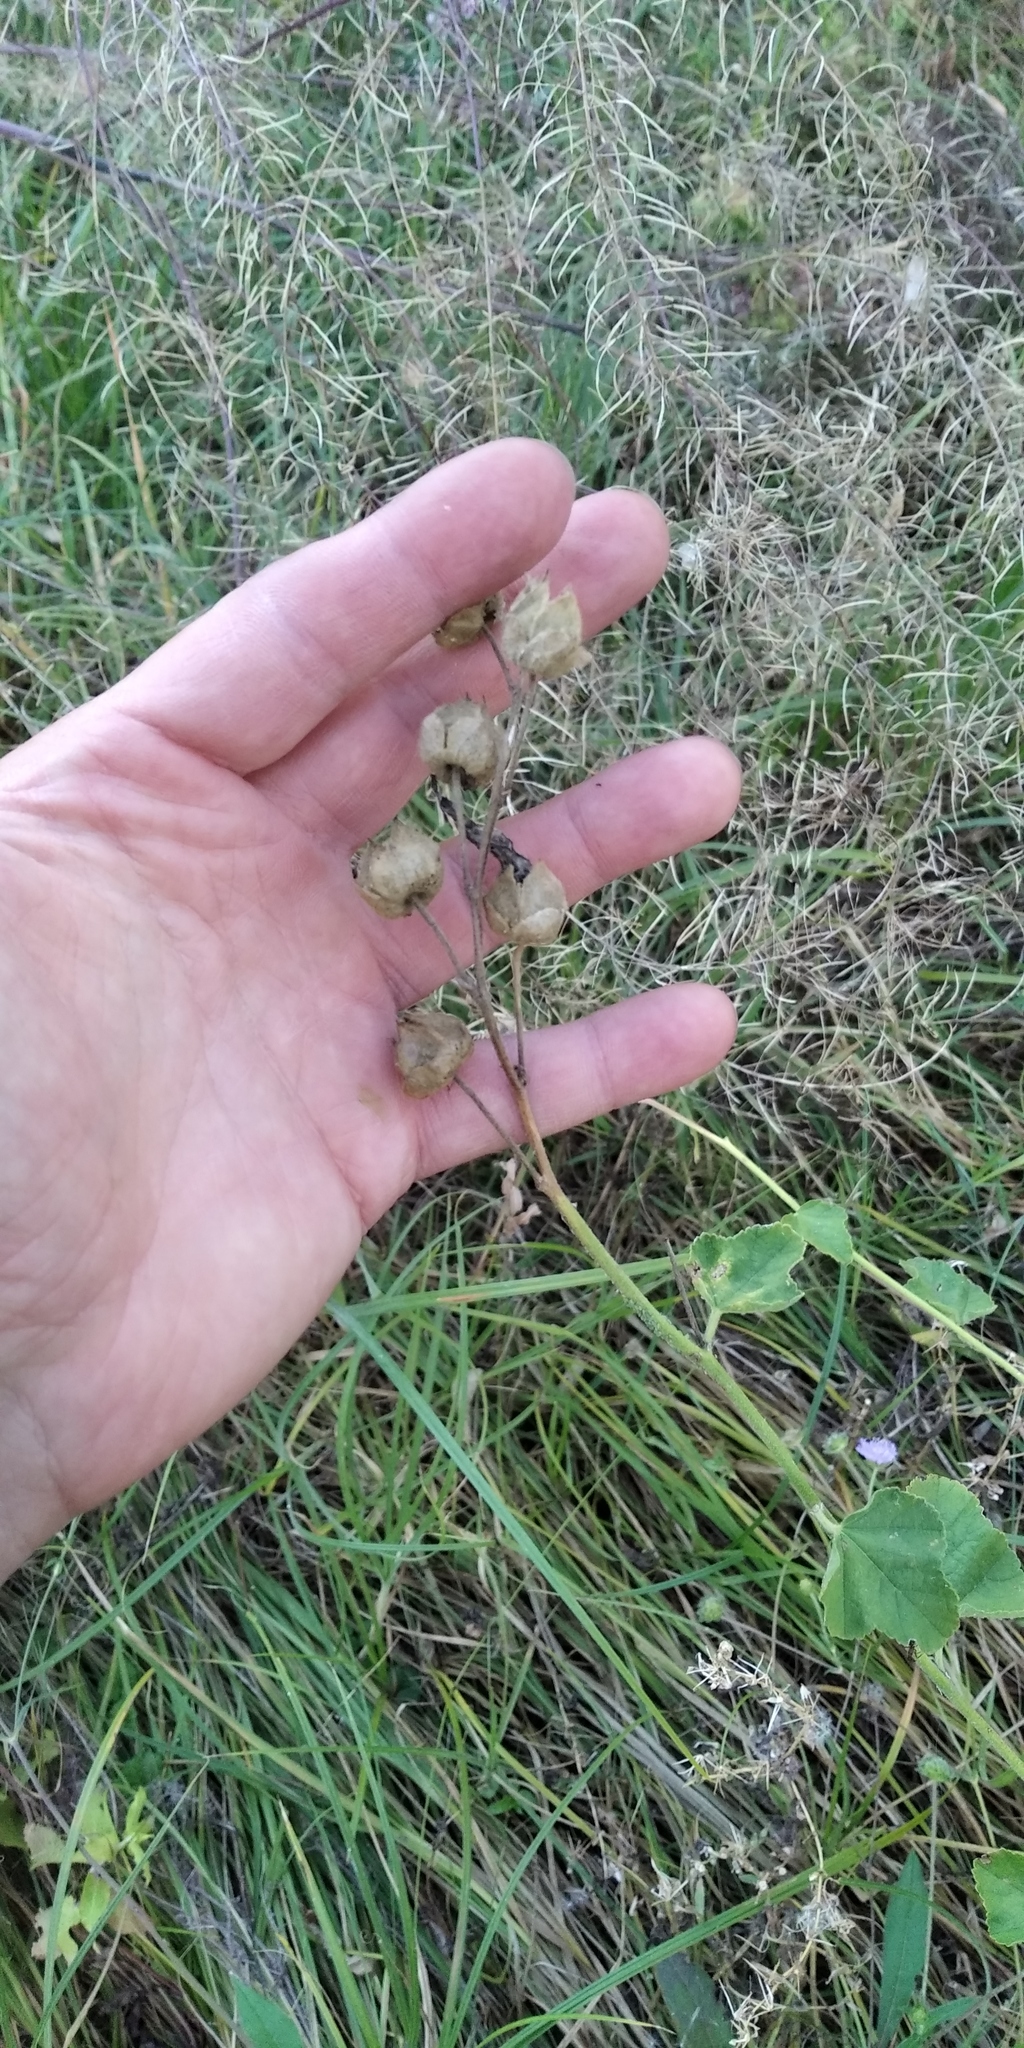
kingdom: Plantae
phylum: Tracheophyta
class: Magnoliopsida
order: Malvales
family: Malvaceae
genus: Malva
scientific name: Malva thuringiaca
